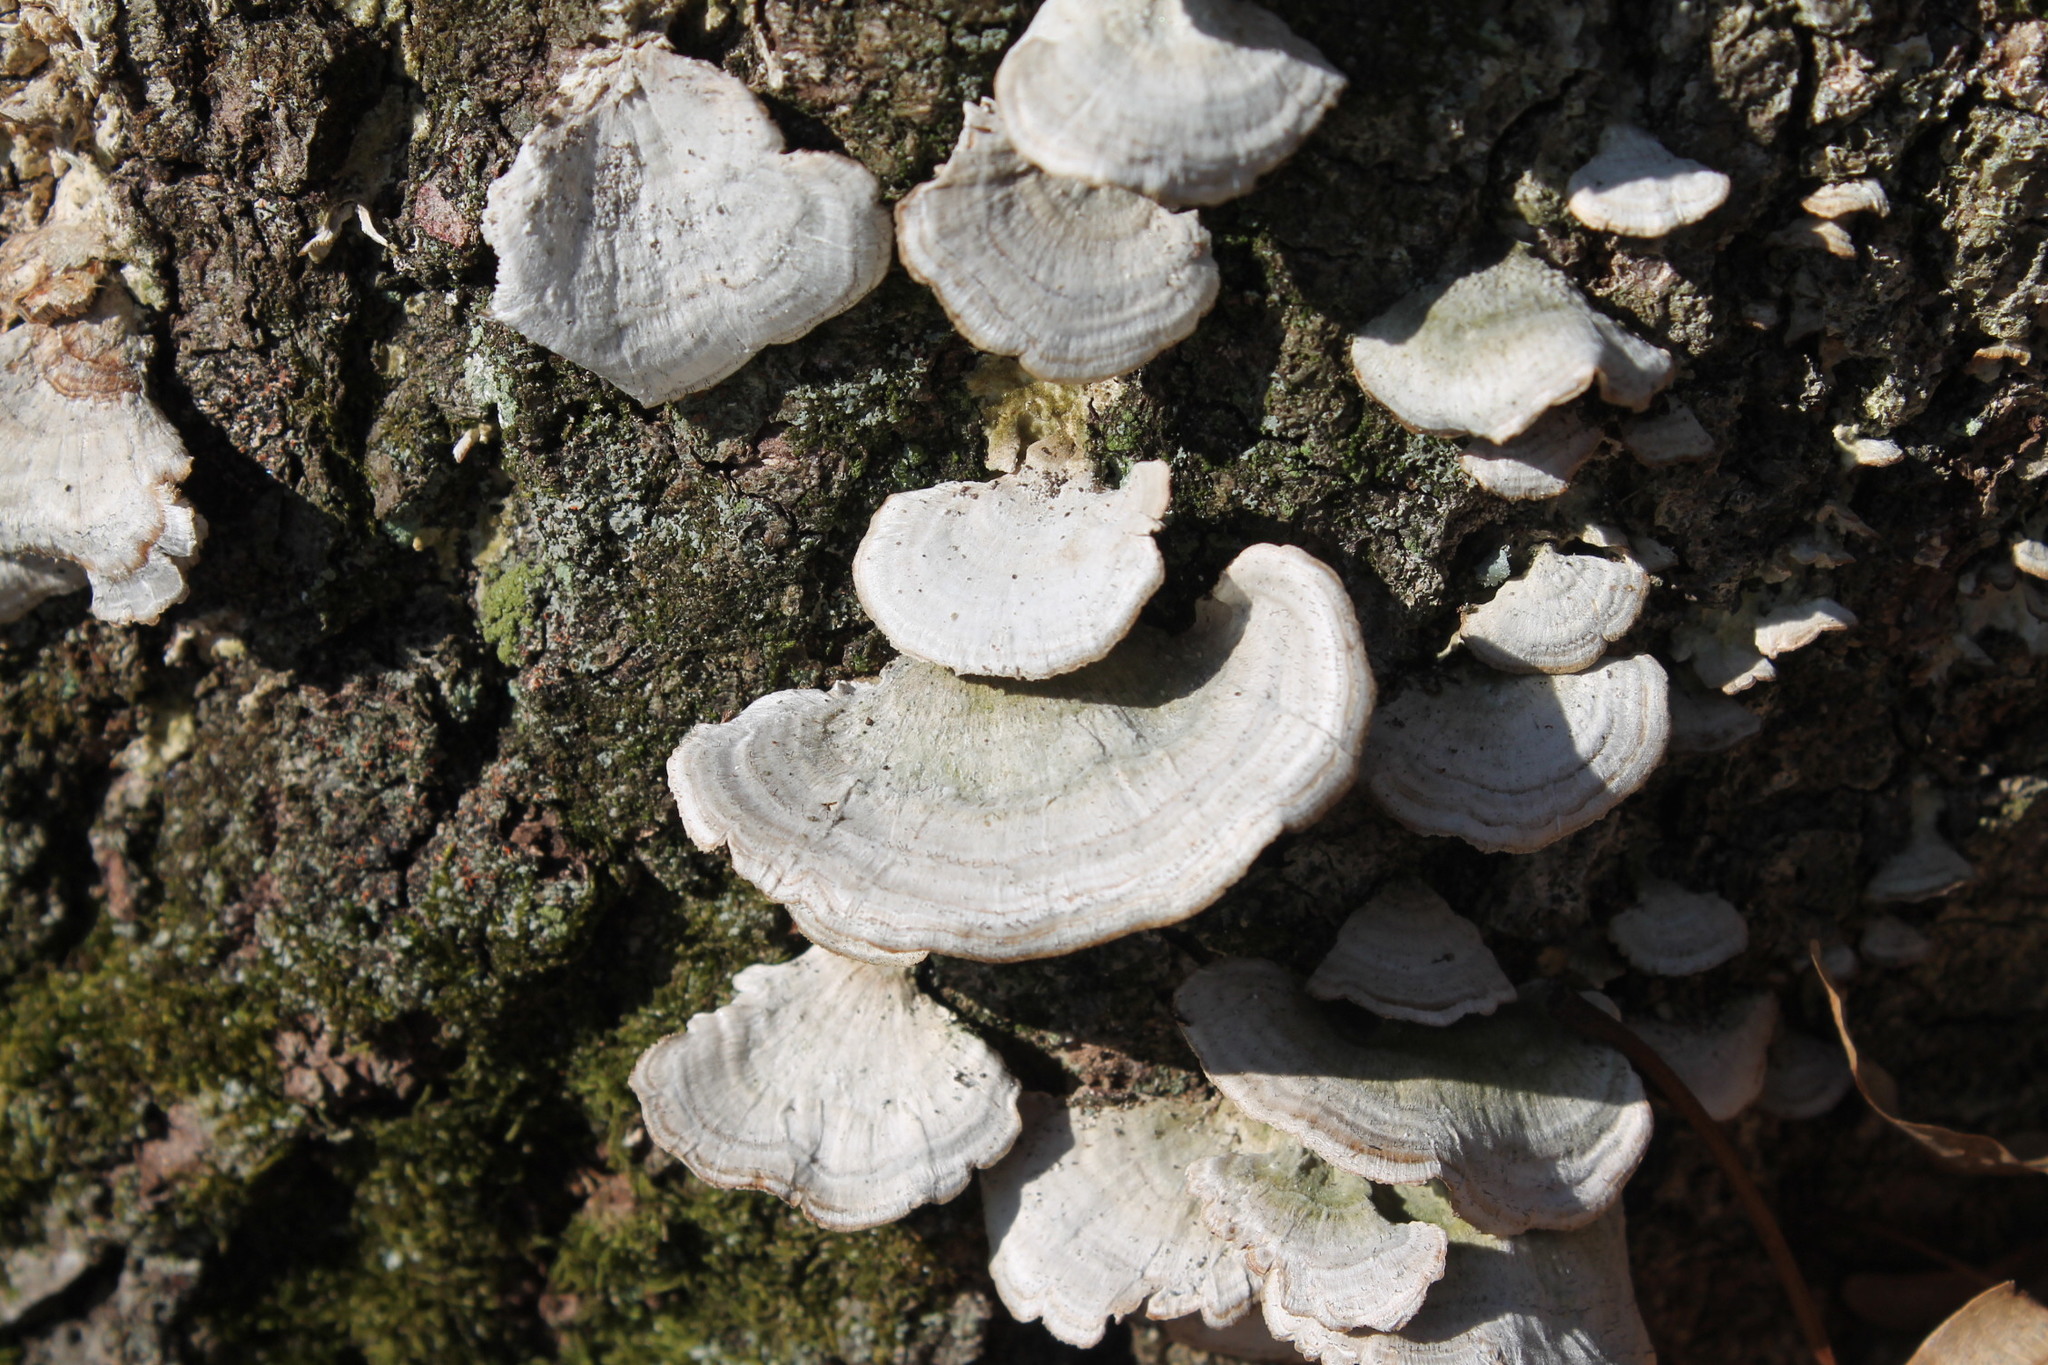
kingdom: Fungi
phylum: Basidiomycota
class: Agaricomycetes
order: Hymenochaetales
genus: Trichaptum
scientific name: Trichaptum biforme
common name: Violet-toothed polypore
